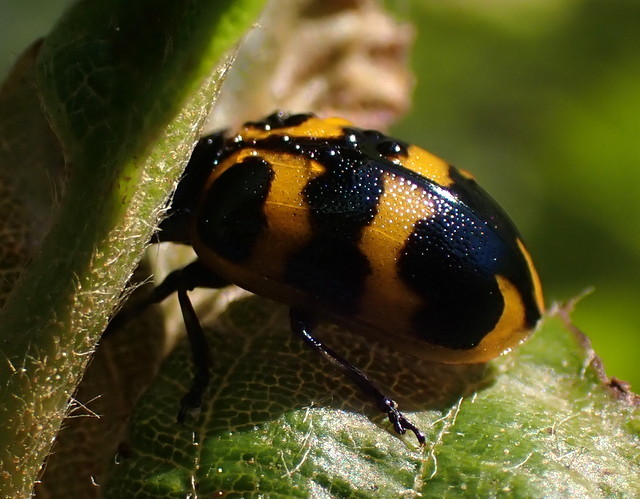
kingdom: Animalia
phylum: Arthropoda
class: Insecta
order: Coleoptera
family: Chrysomelidae
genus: Chrysomela
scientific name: Chrysomela interrupta
